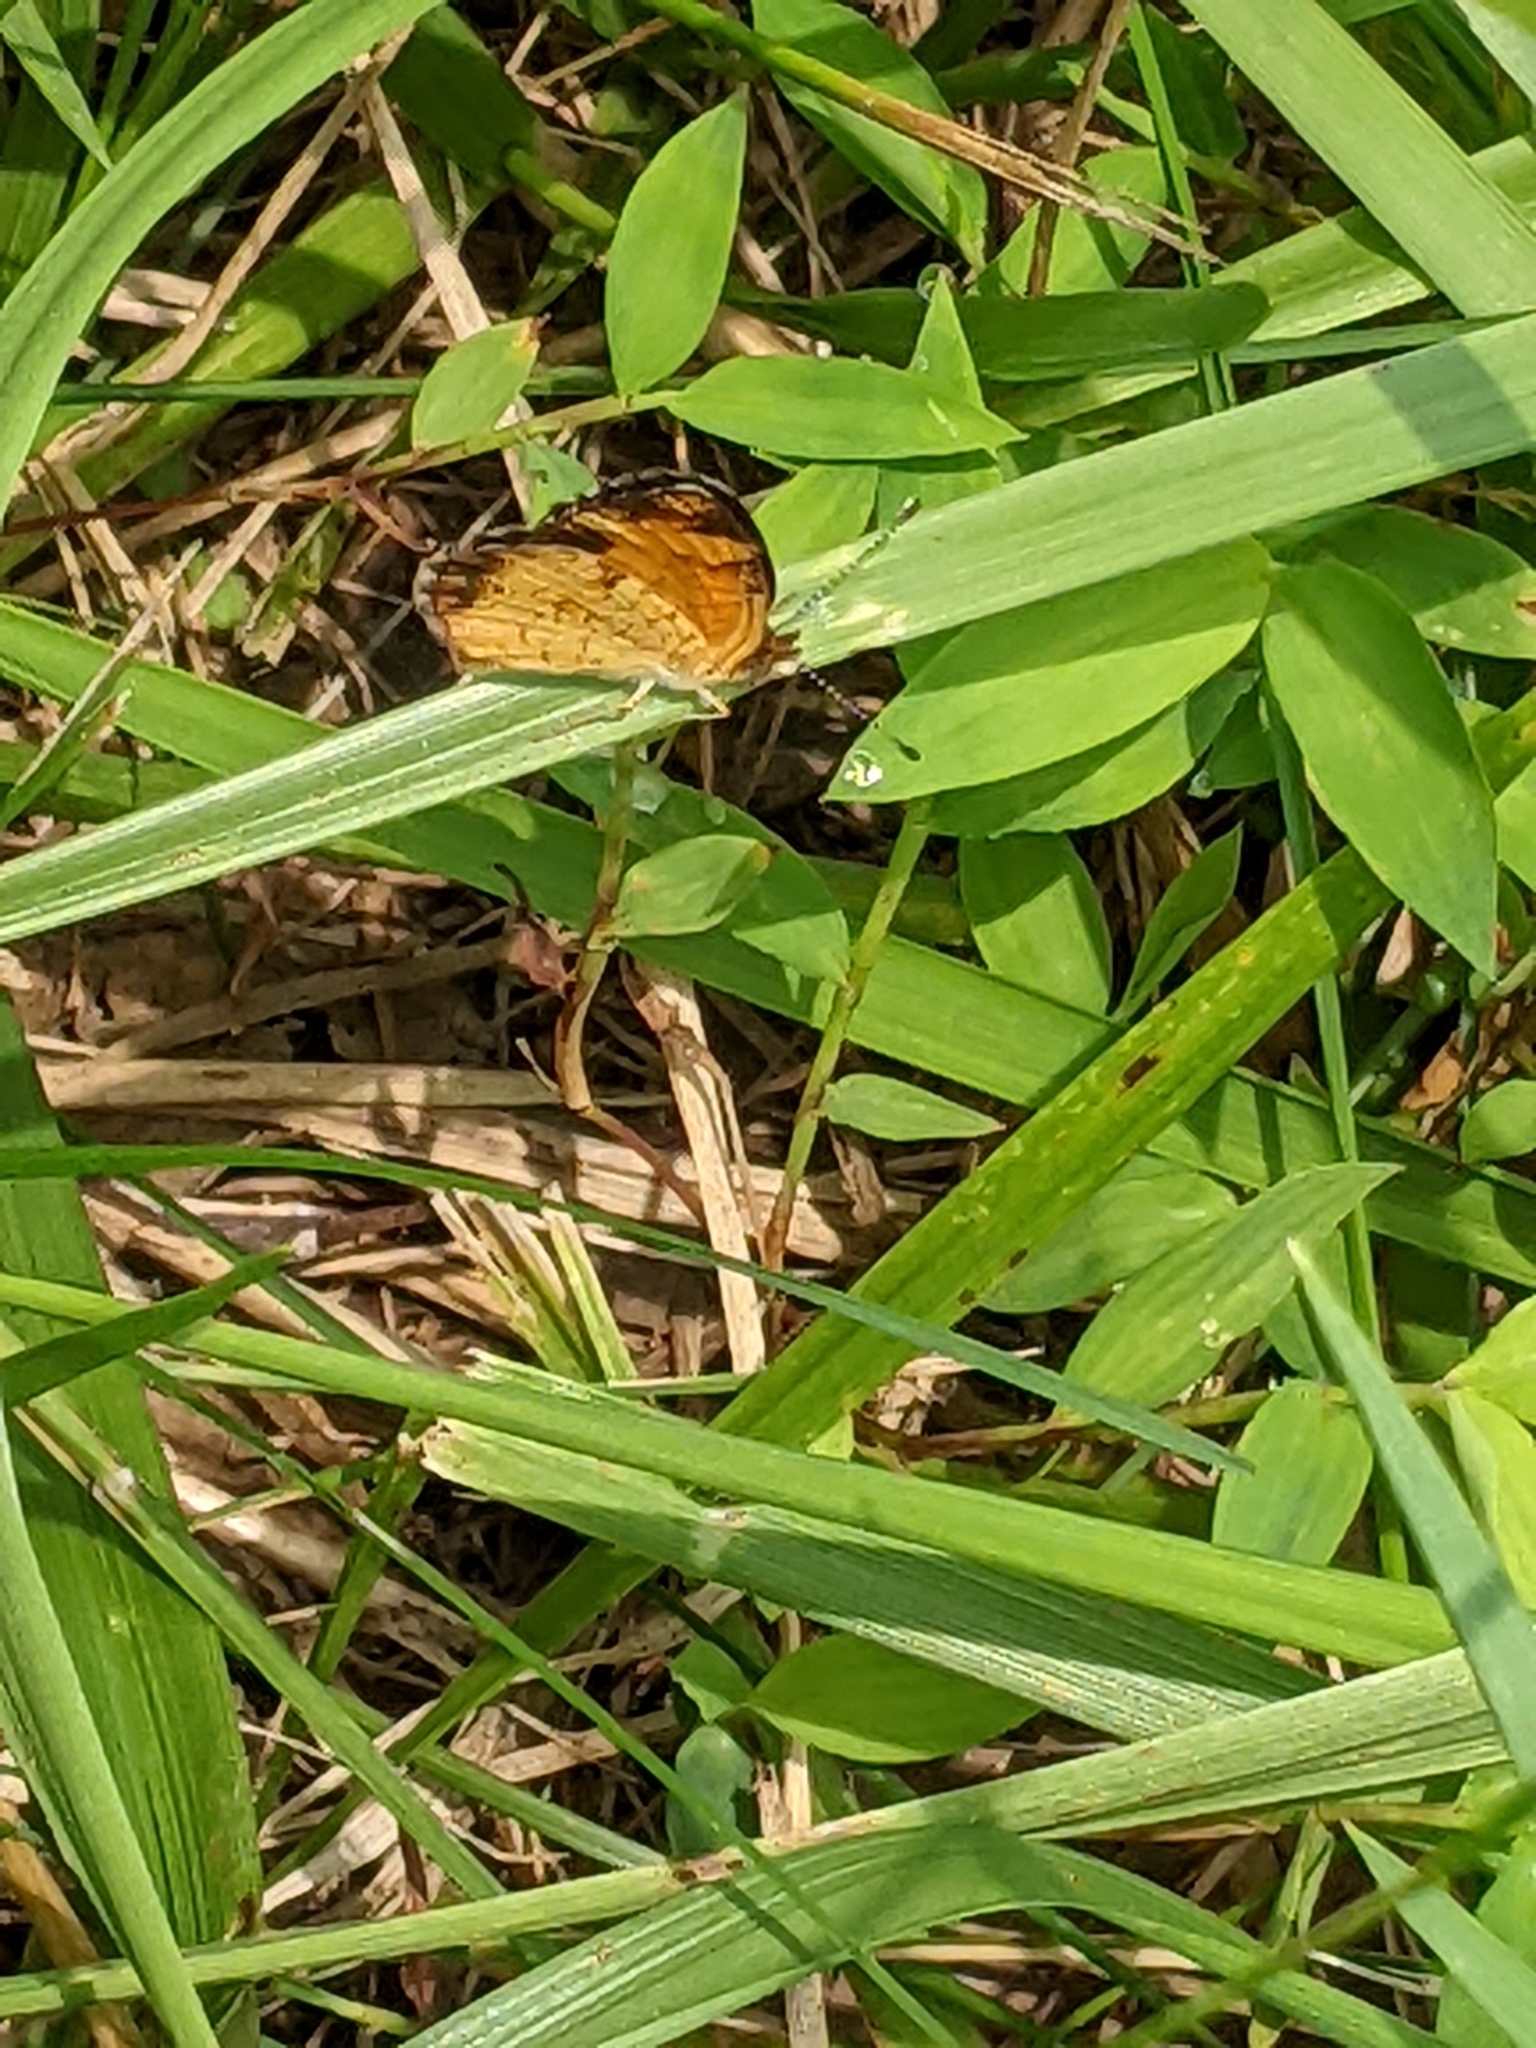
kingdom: Animalia
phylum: Arthropoda
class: Insecta
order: Lepidoptera
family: Nymphalidae
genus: Phyciodes
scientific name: Phyciodes tharos
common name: Pearl crescent
